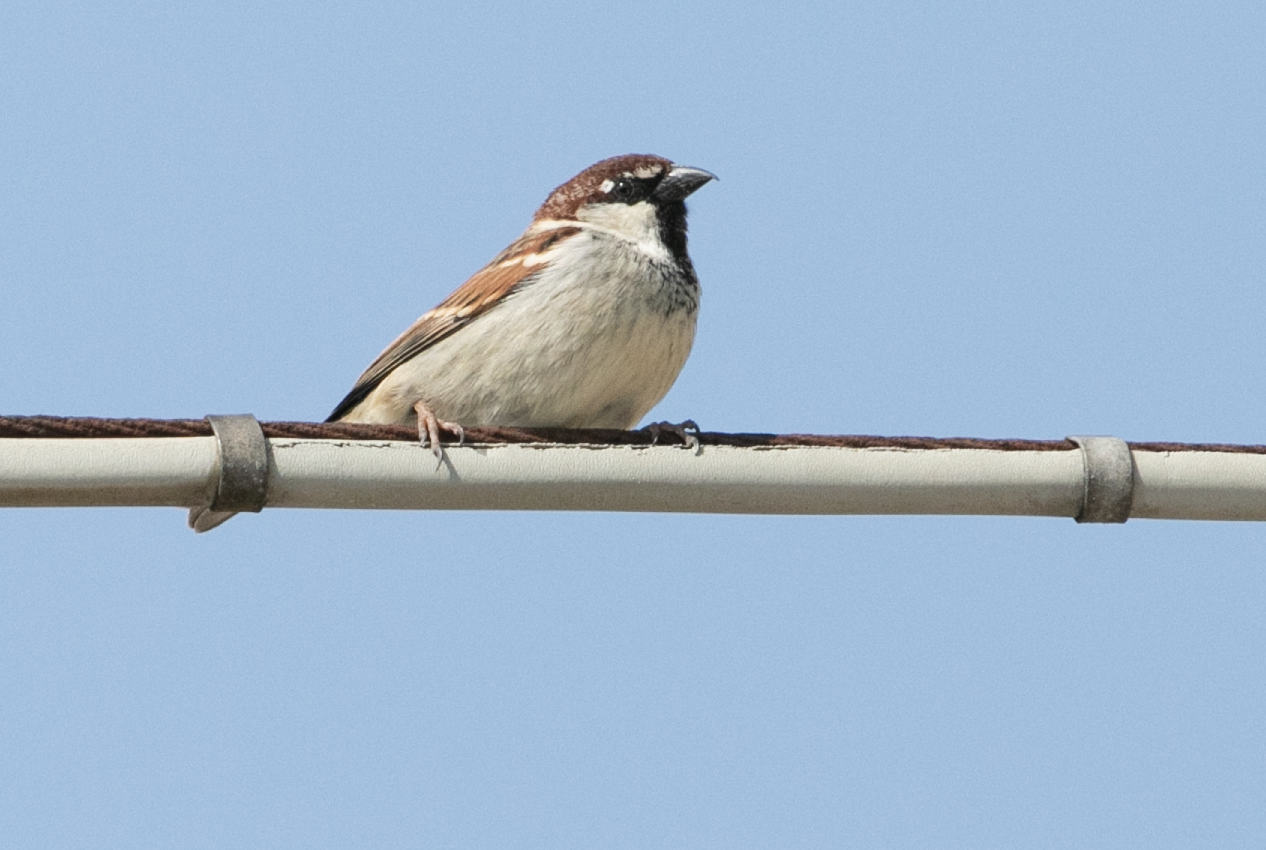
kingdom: Animalia
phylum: Chordata
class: Aves
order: Passeriformes
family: Passeridae
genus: Passer
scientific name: Passer italiae
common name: Italian sparrow
